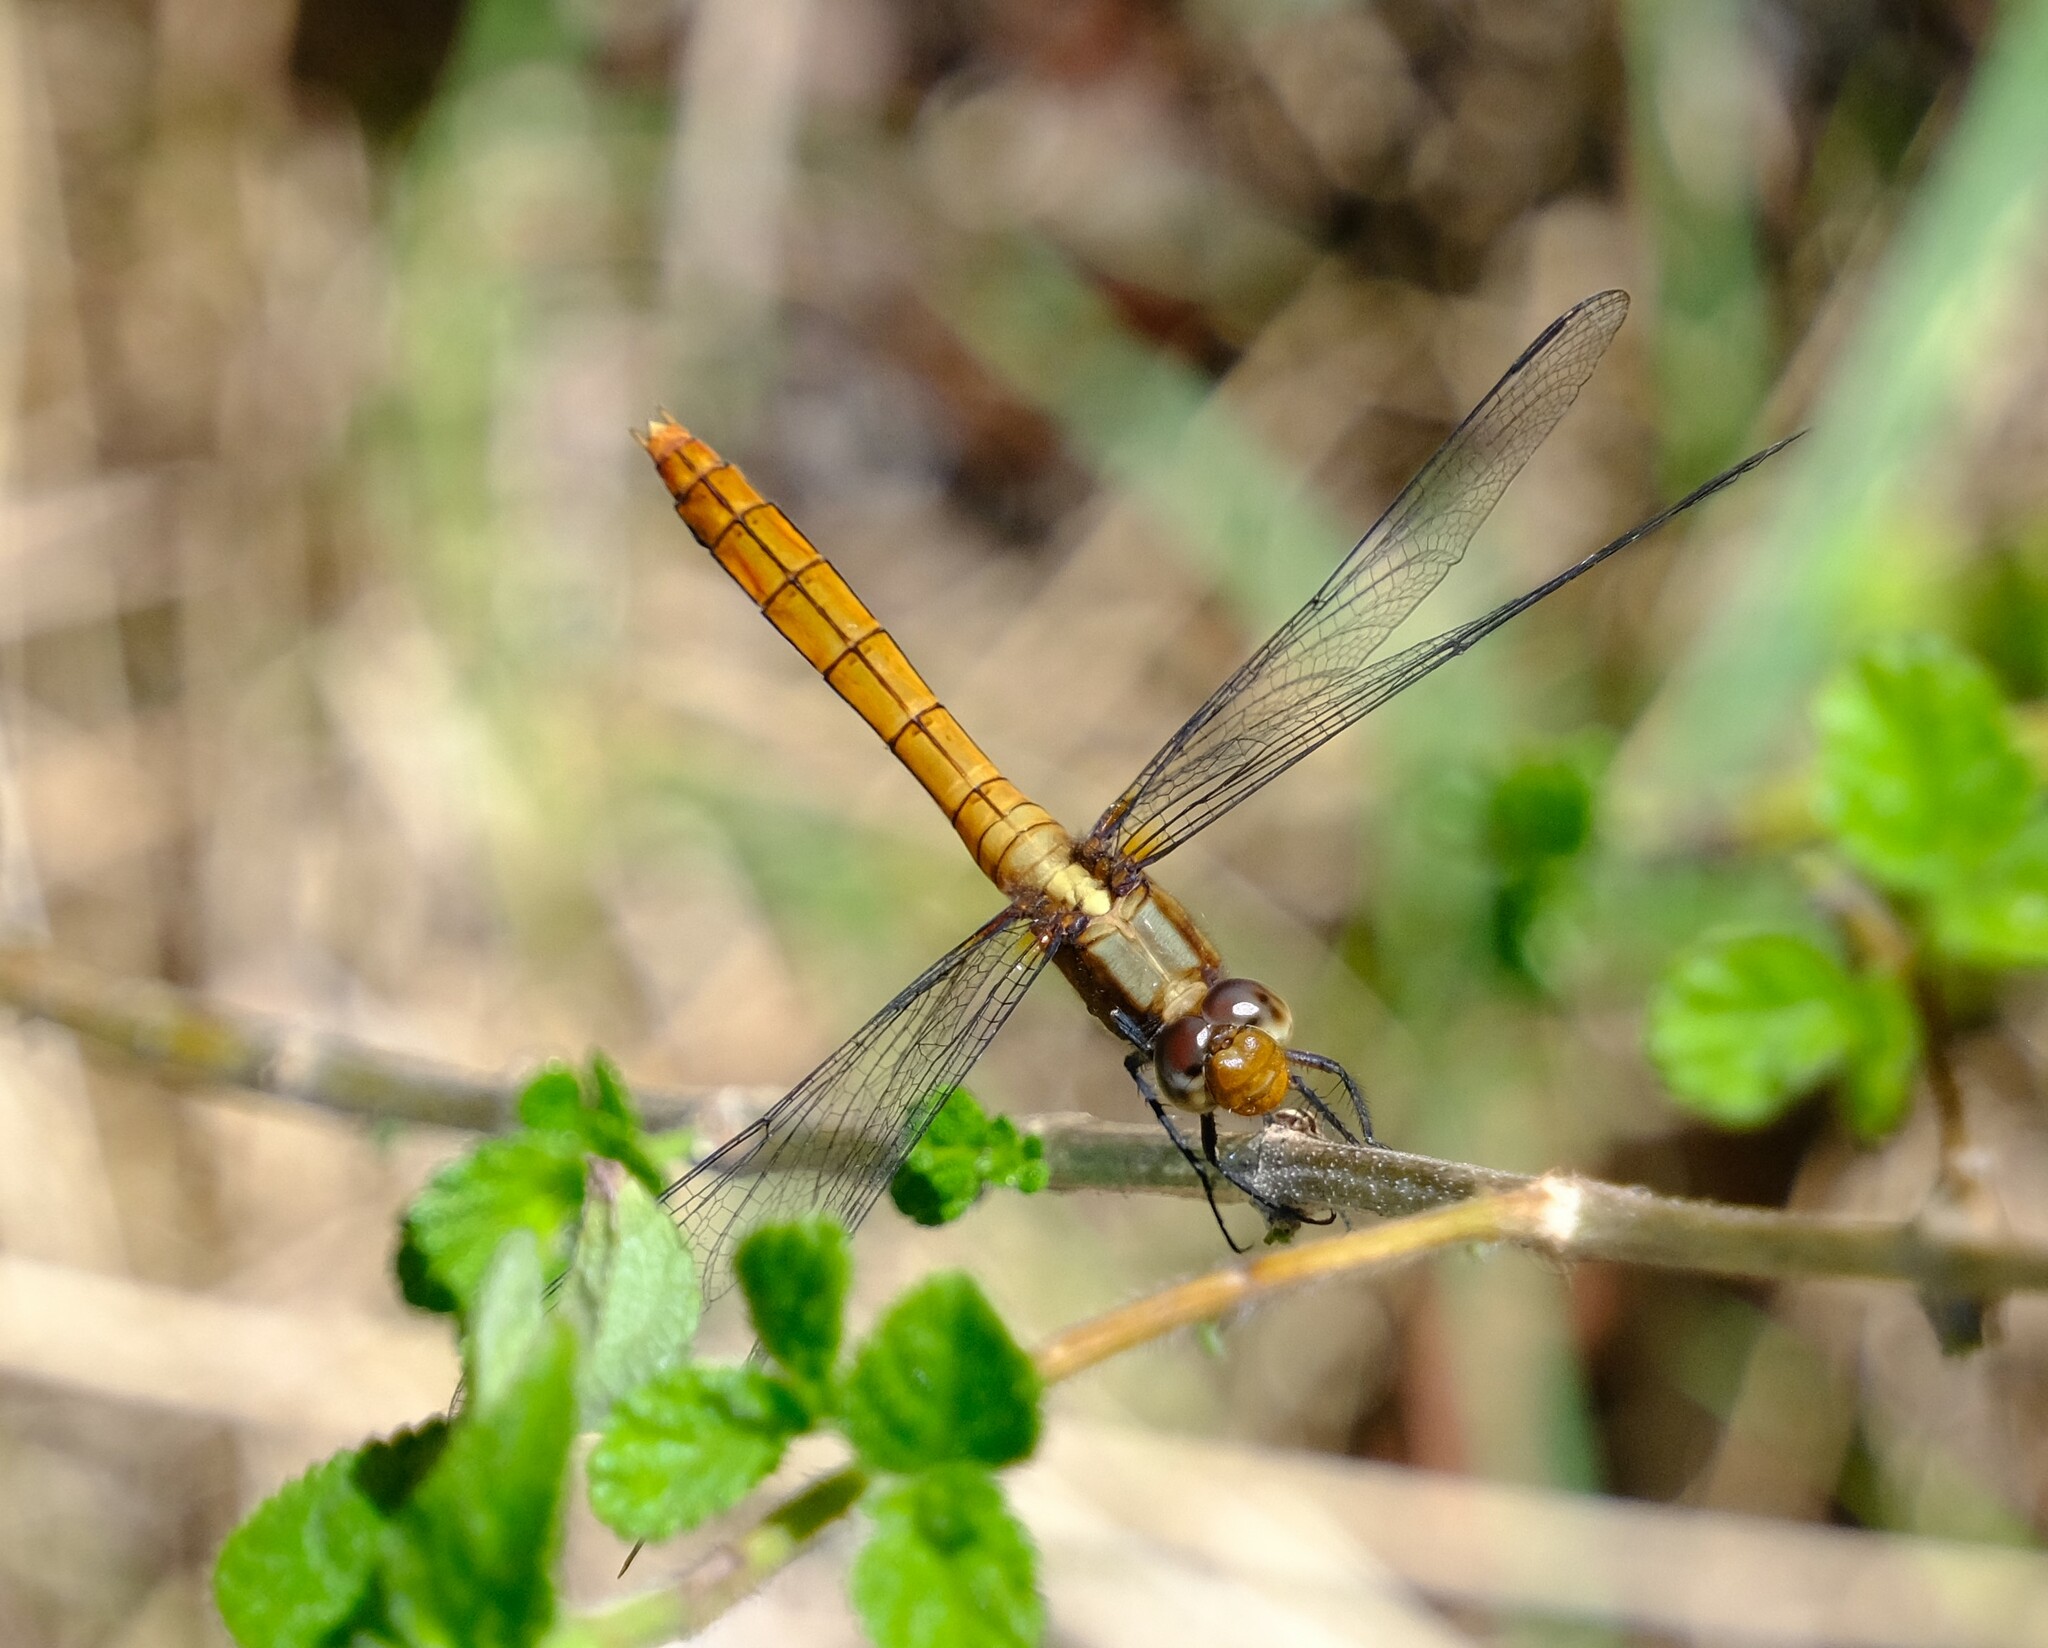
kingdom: Animalia
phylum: Arthropoda
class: Insecta
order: Odonata
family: Libellulidae
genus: Orthetrum
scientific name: Orthetrum villosovittatum
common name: Firery skimmer
